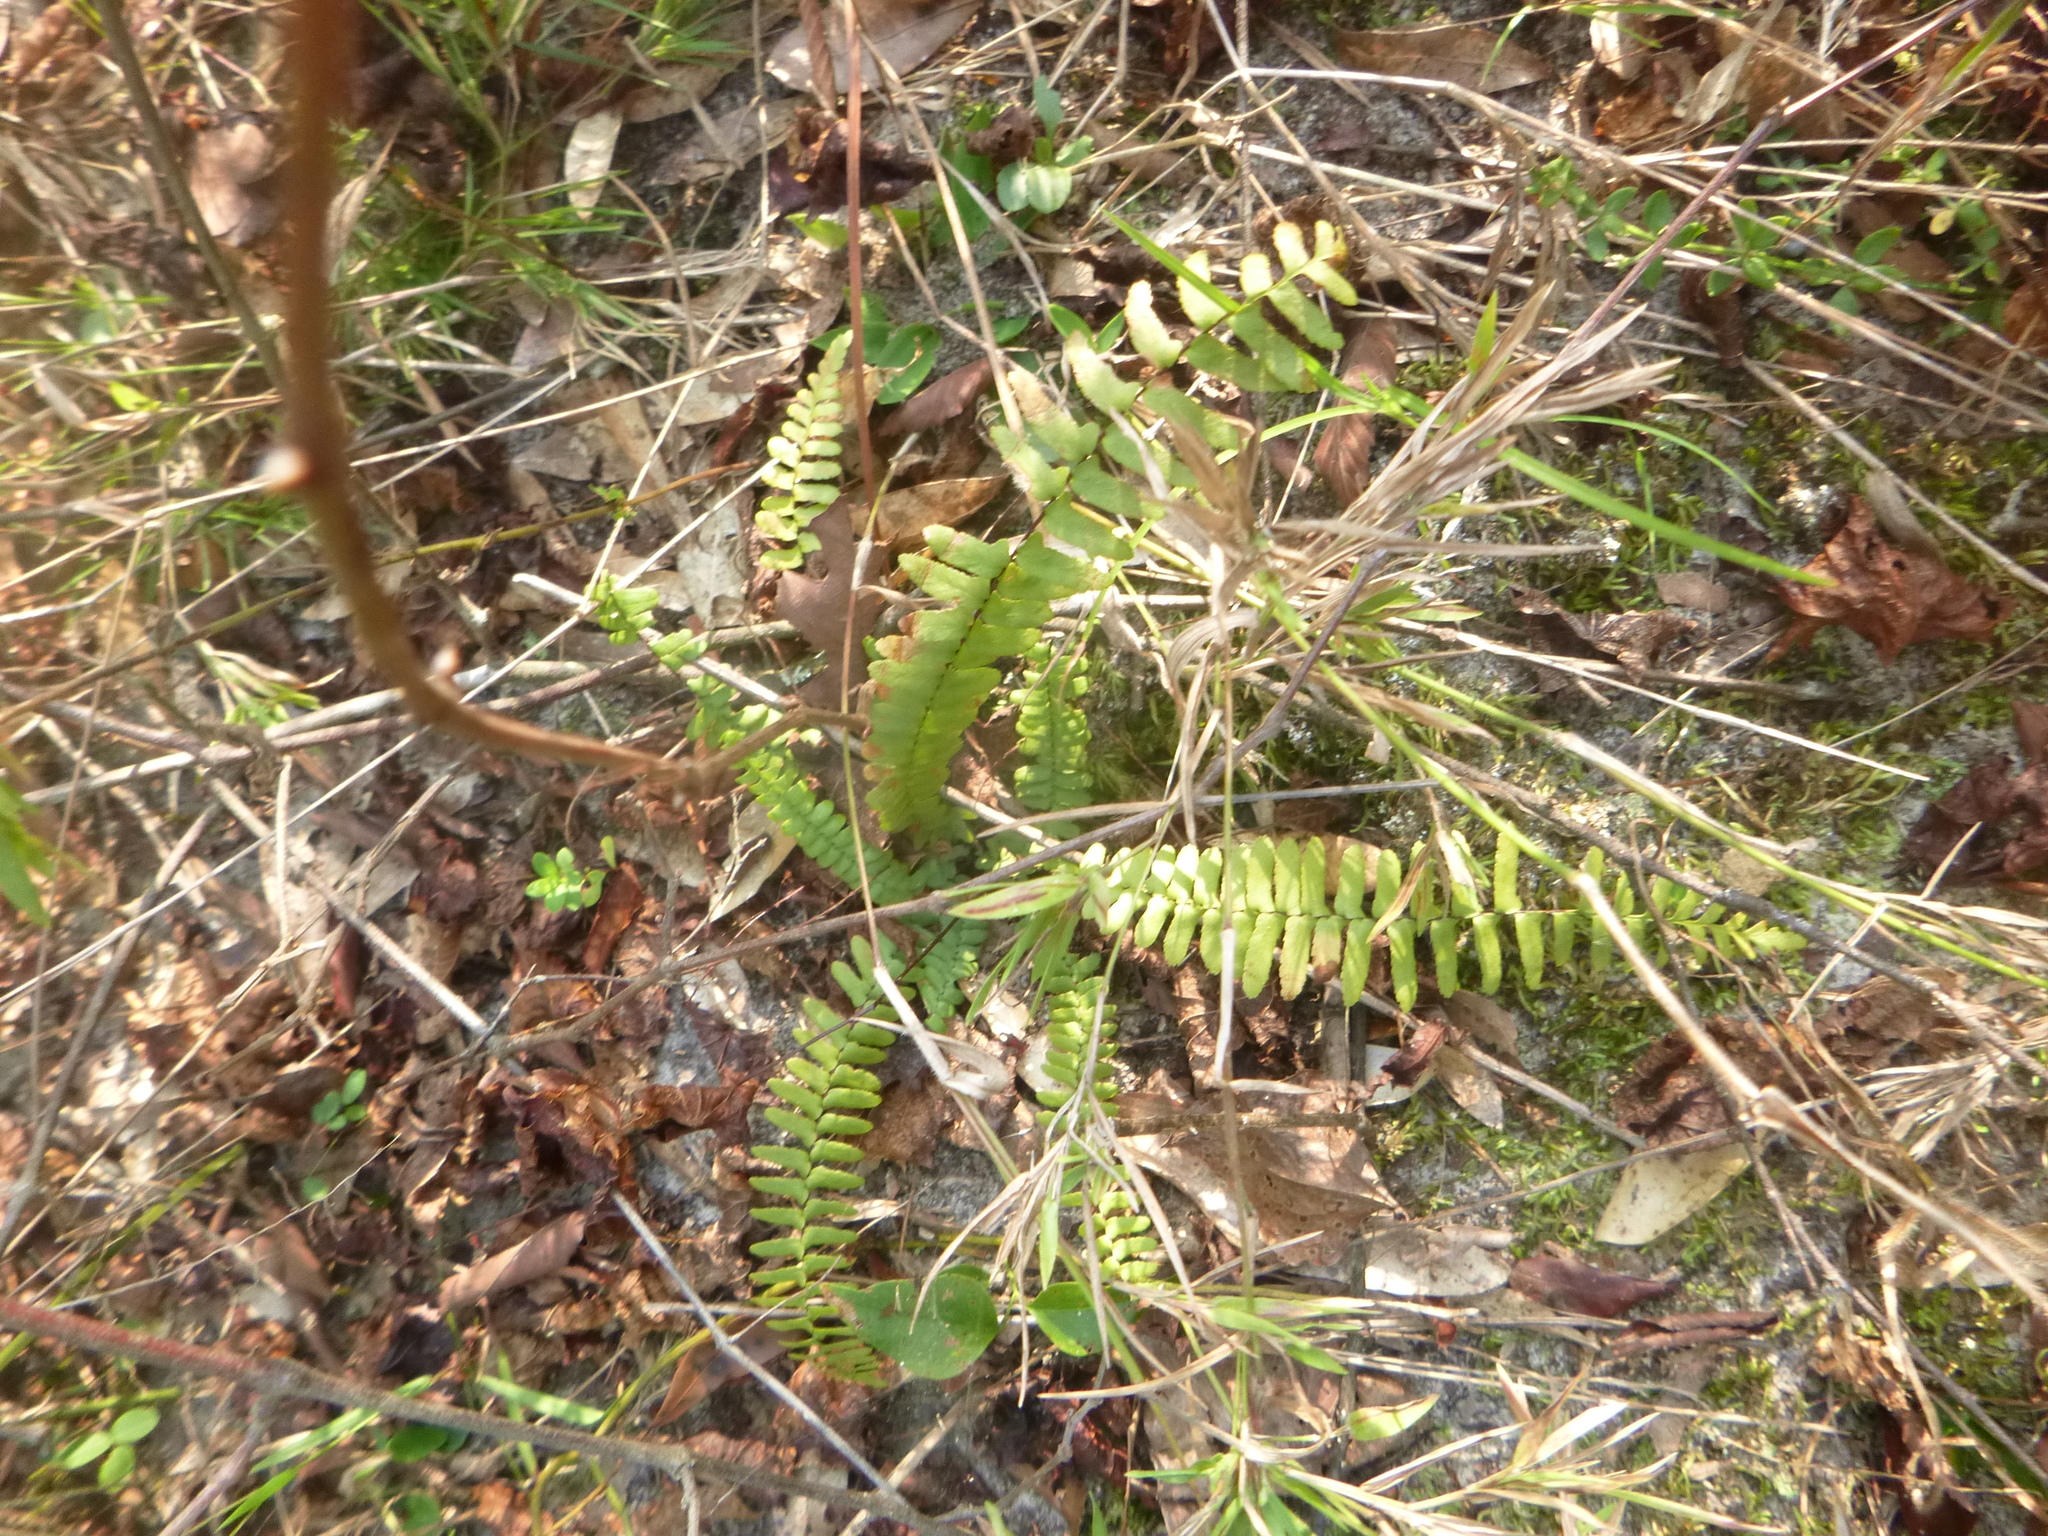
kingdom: Plantae
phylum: Tracheophyta
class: Polypodiopsida
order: Polypodiales
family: Aspleniaceae
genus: Asplenium
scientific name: Asplenium platyneuron
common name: Ebony spleenwort
